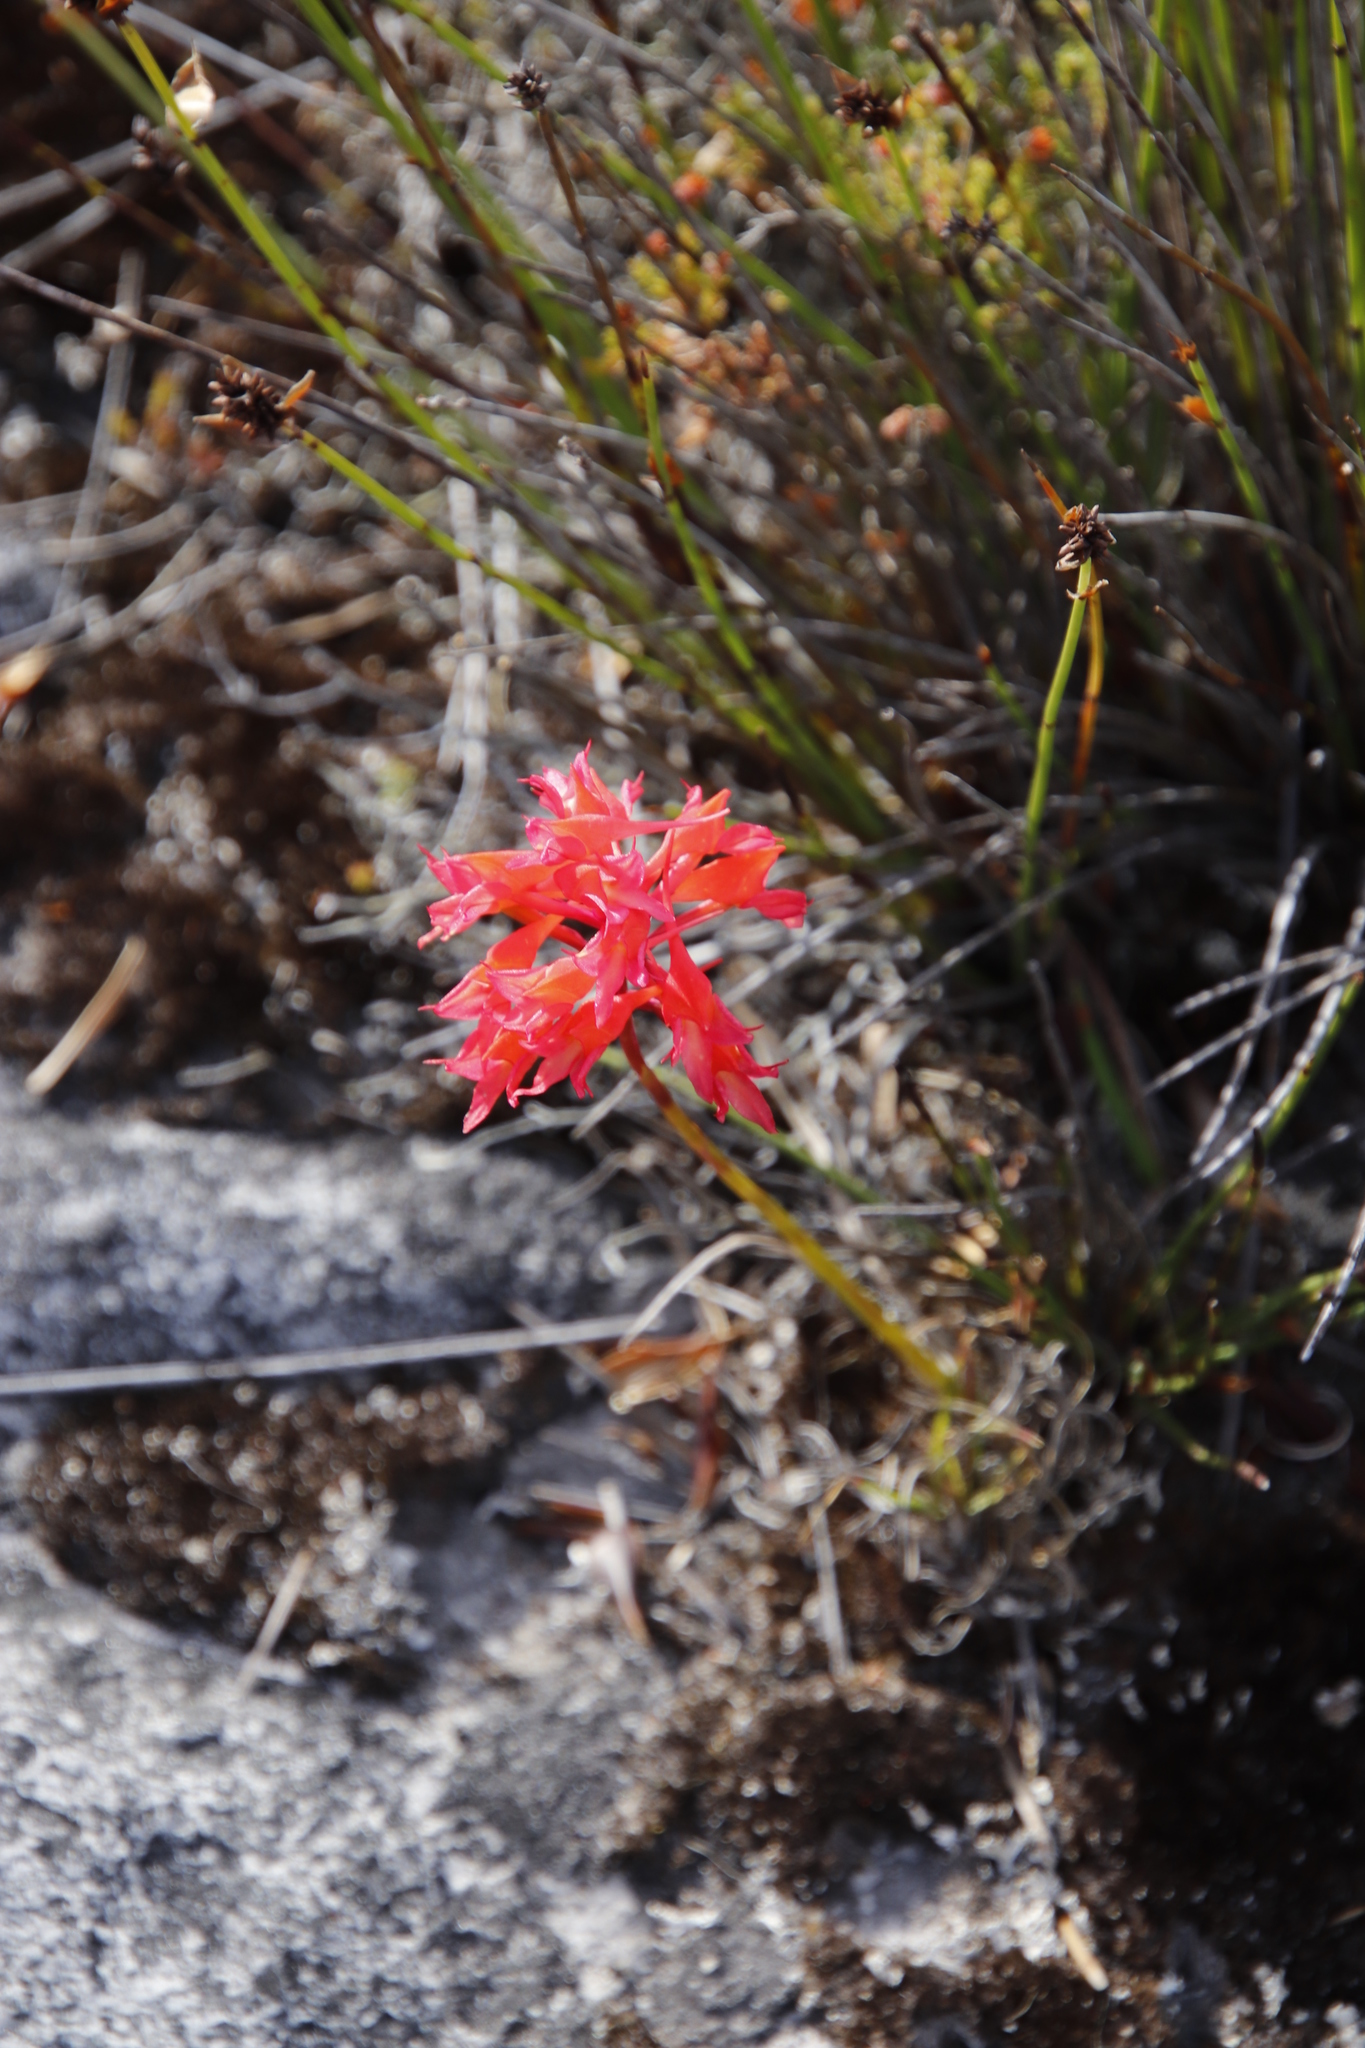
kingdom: Plantae
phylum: Tracheophyta
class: Liliopsida
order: Asparagales
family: Orchidaceae
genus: Disa
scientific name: Disa ferruginea
